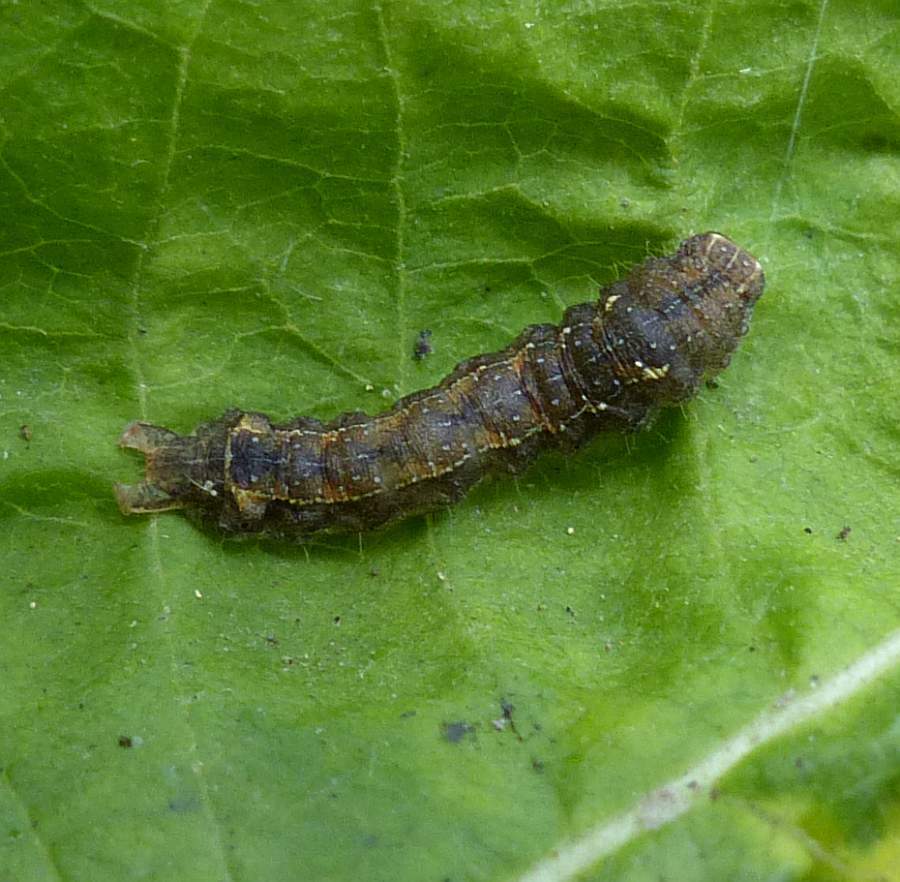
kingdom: Animalia
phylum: Arthropoda
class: Insecta
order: Lepidoptera
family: Noctuidae
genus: Pseudorthodes
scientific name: Pseudorthodes vecors
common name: Small brown quaker
